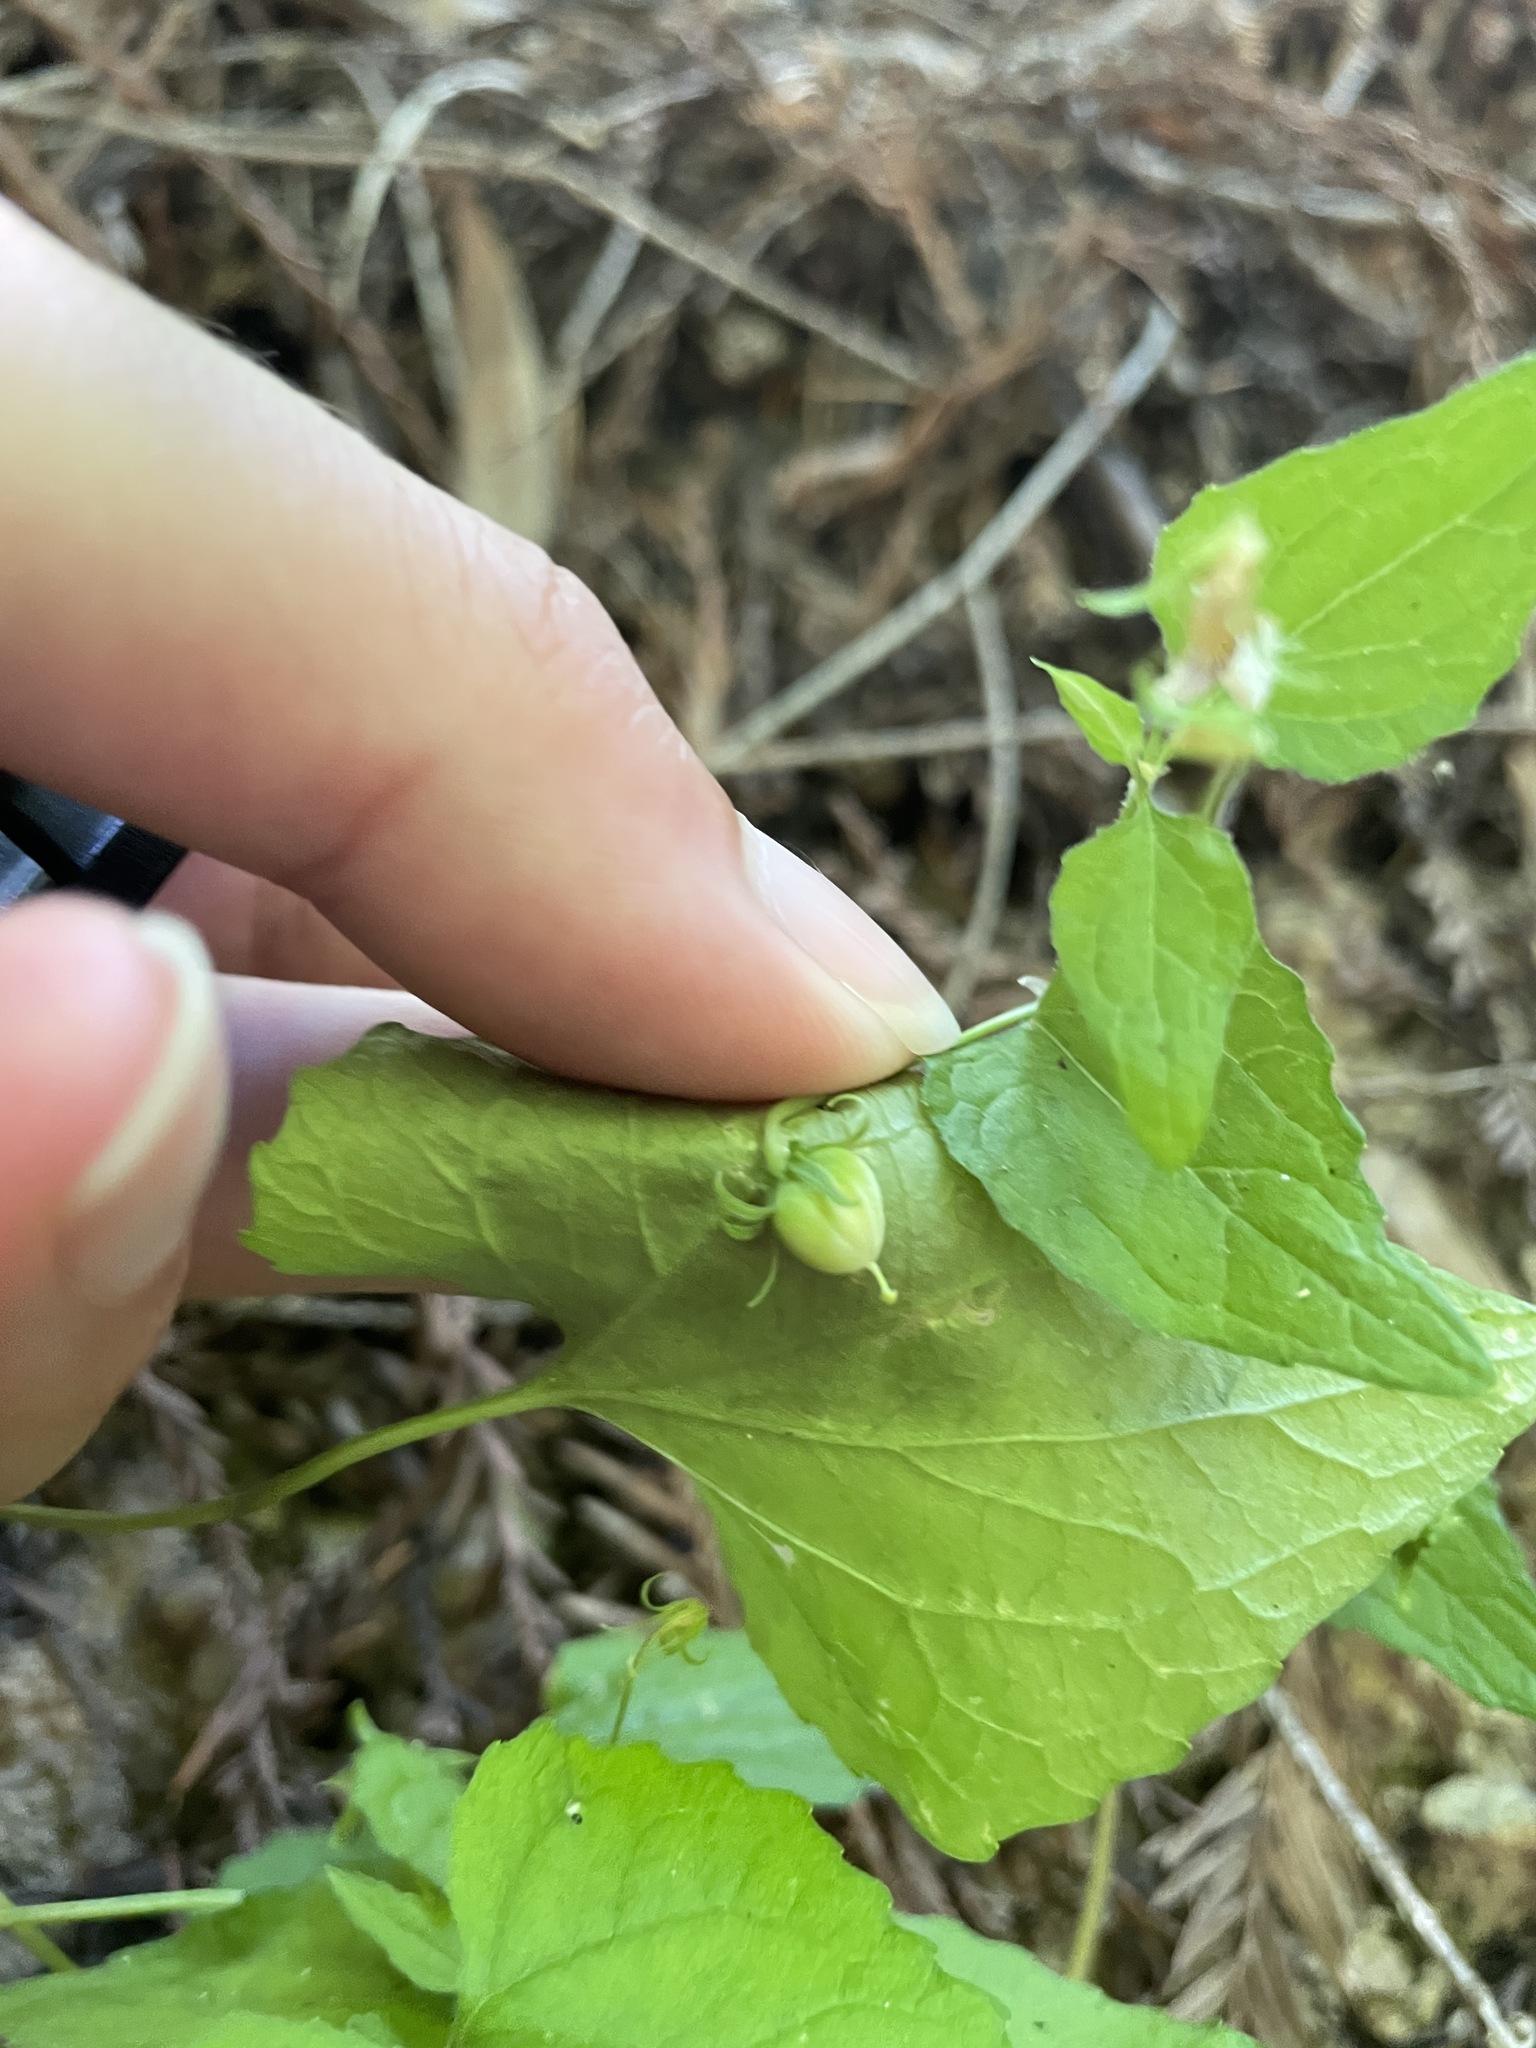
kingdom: Plantae
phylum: Tracheophyta
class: Magnoliopsida
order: Malpighiales
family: Violaceae
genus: Viola
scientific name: Viola ocellata
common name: Western heart's ease
